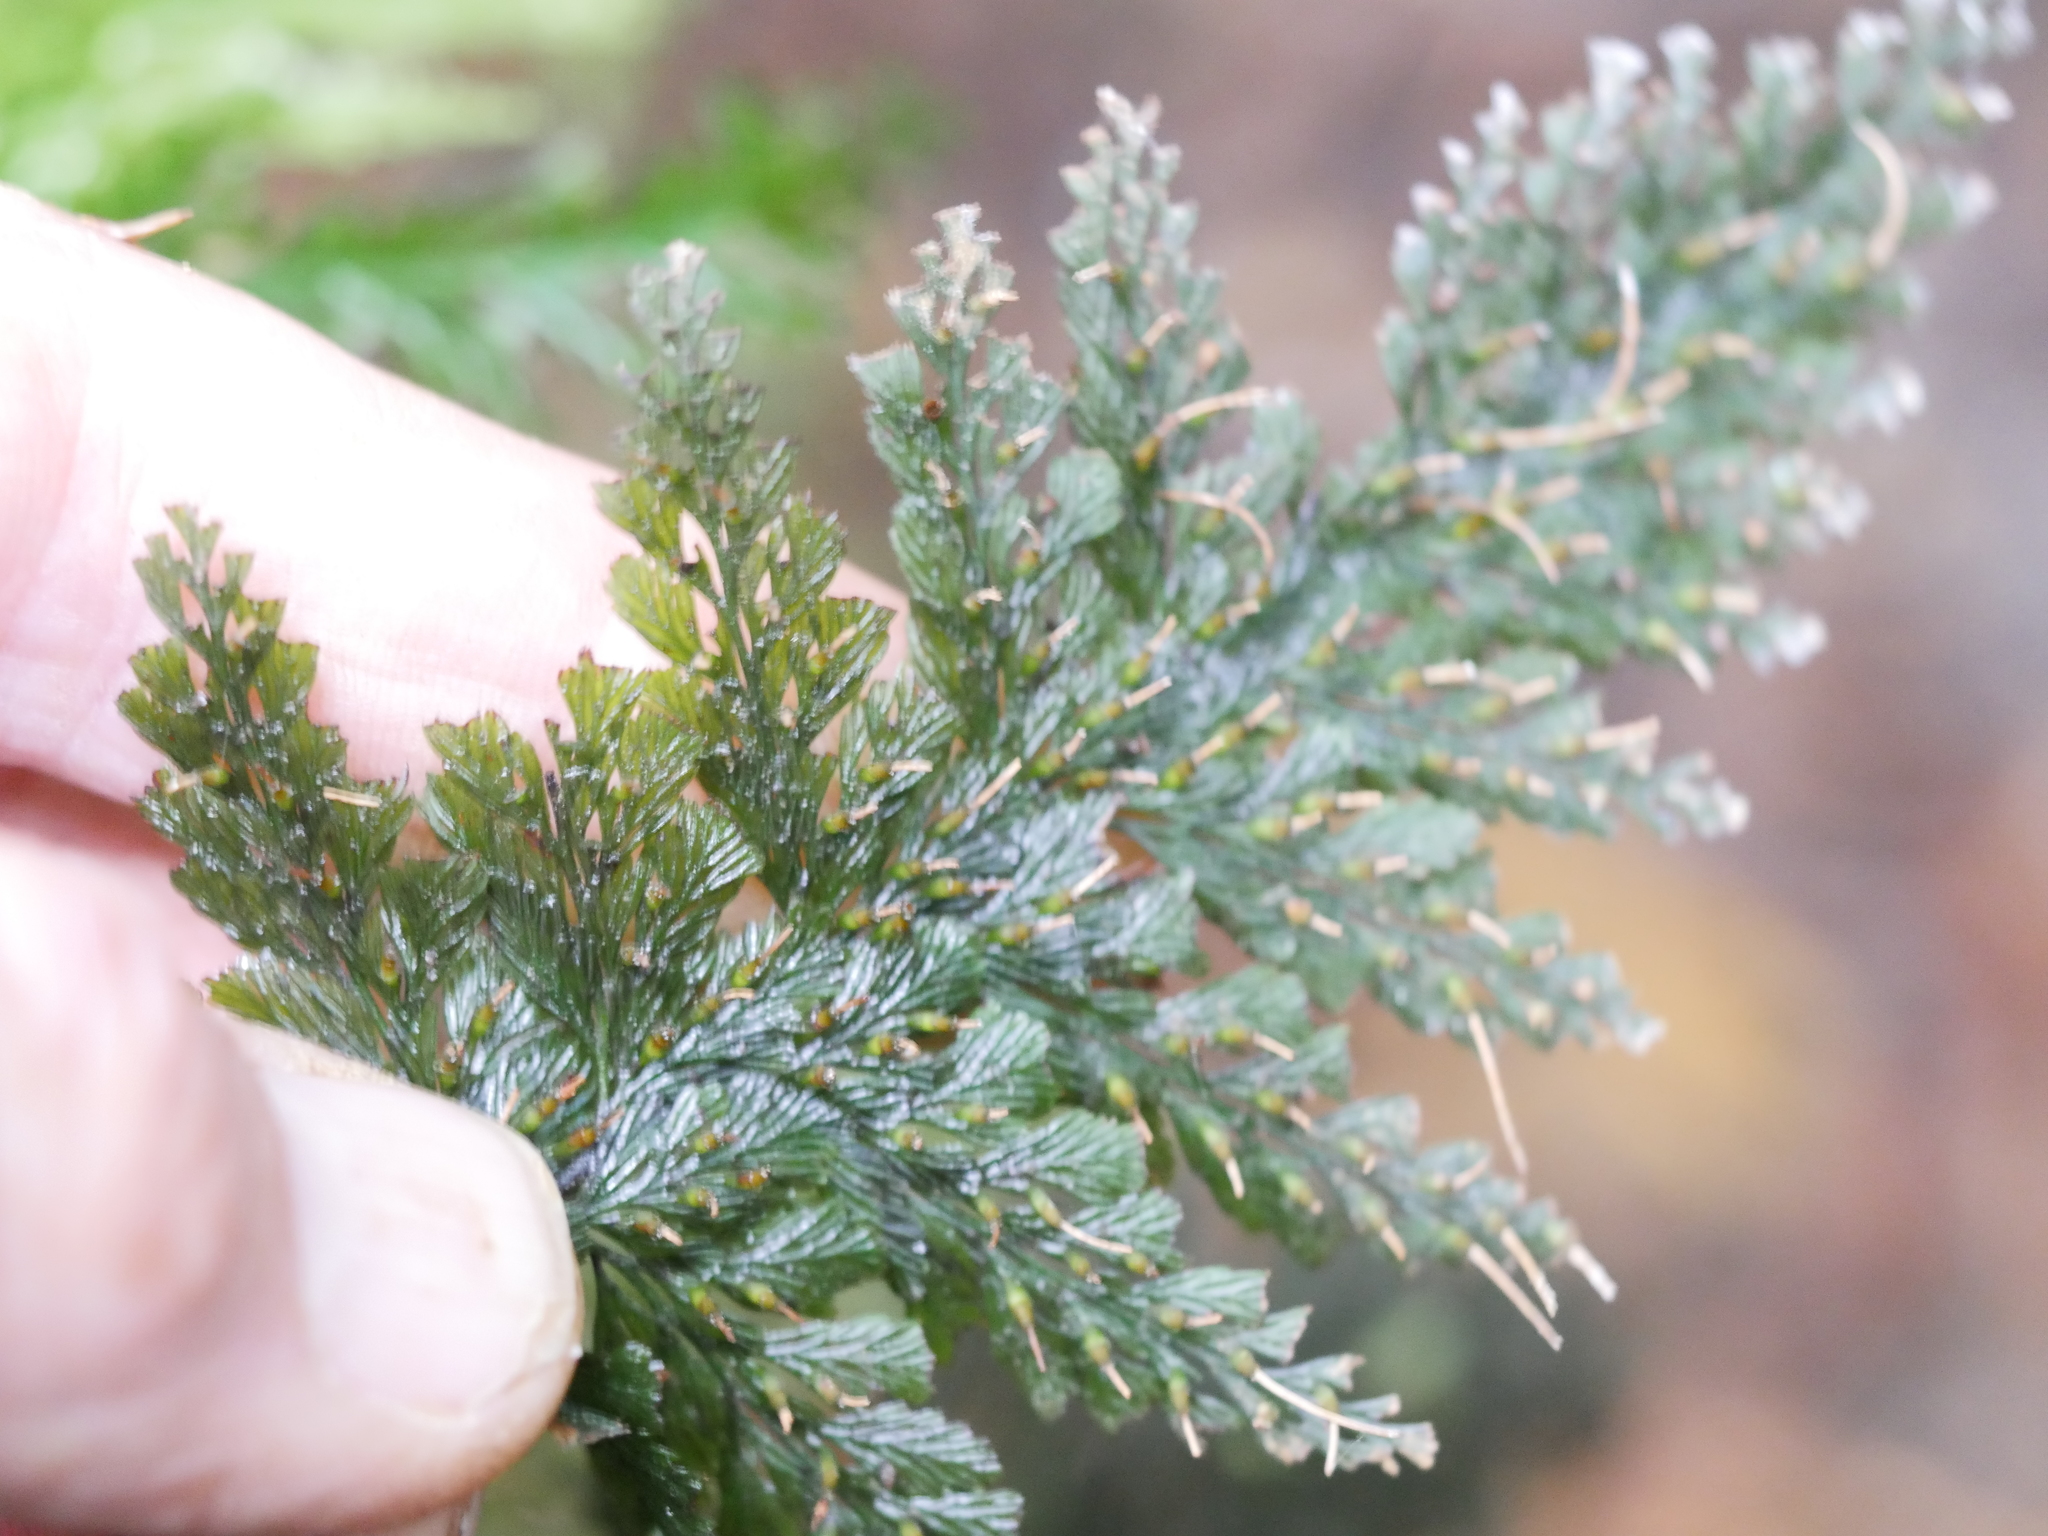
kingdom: Plantae
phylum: Tracheophyta
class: Polypodiopsida
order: Hymenophyllales
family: Hymenophyllaceae
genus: Abrodictyum
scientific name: Abrodictyum elongatum
